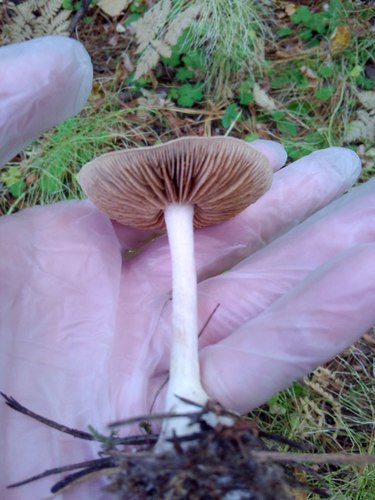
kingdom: Fungi
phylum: Basidiomycota
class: Agaricomycetes
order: Agaricales
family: Cortinariaceae
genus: Cortinarius
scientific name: Cortinarius
